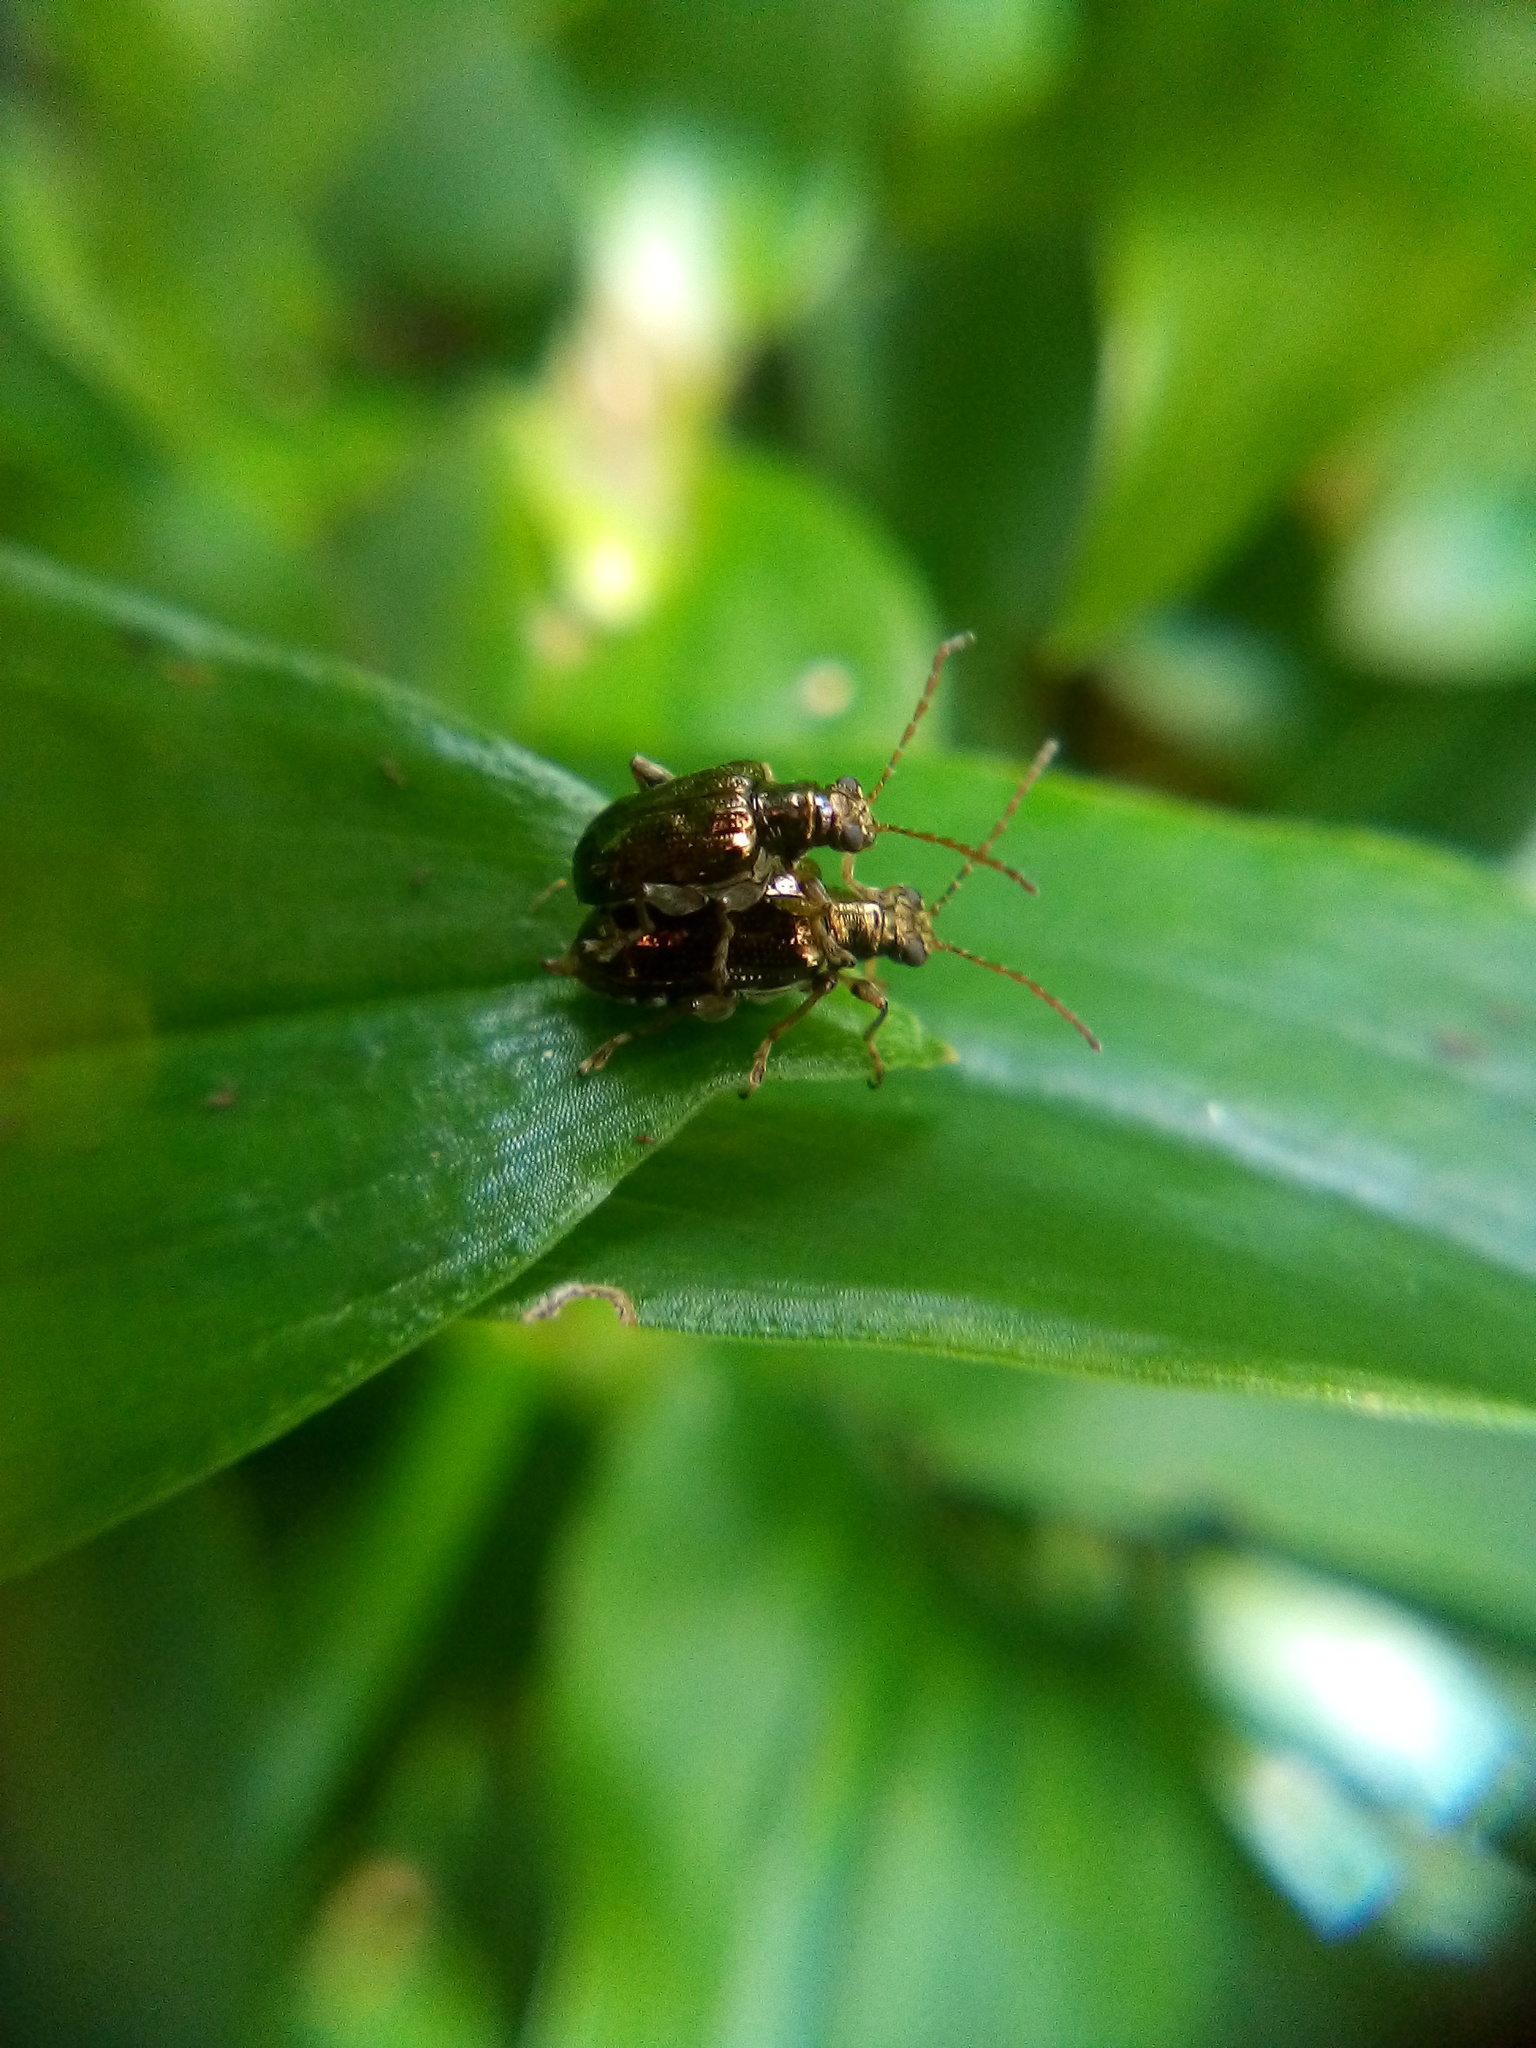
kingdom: Animalia
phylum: Arthropoda
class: Insecta
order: Coleoptera
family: Chrysomelidae
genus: Neolema
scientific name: Neolema ogloblini
